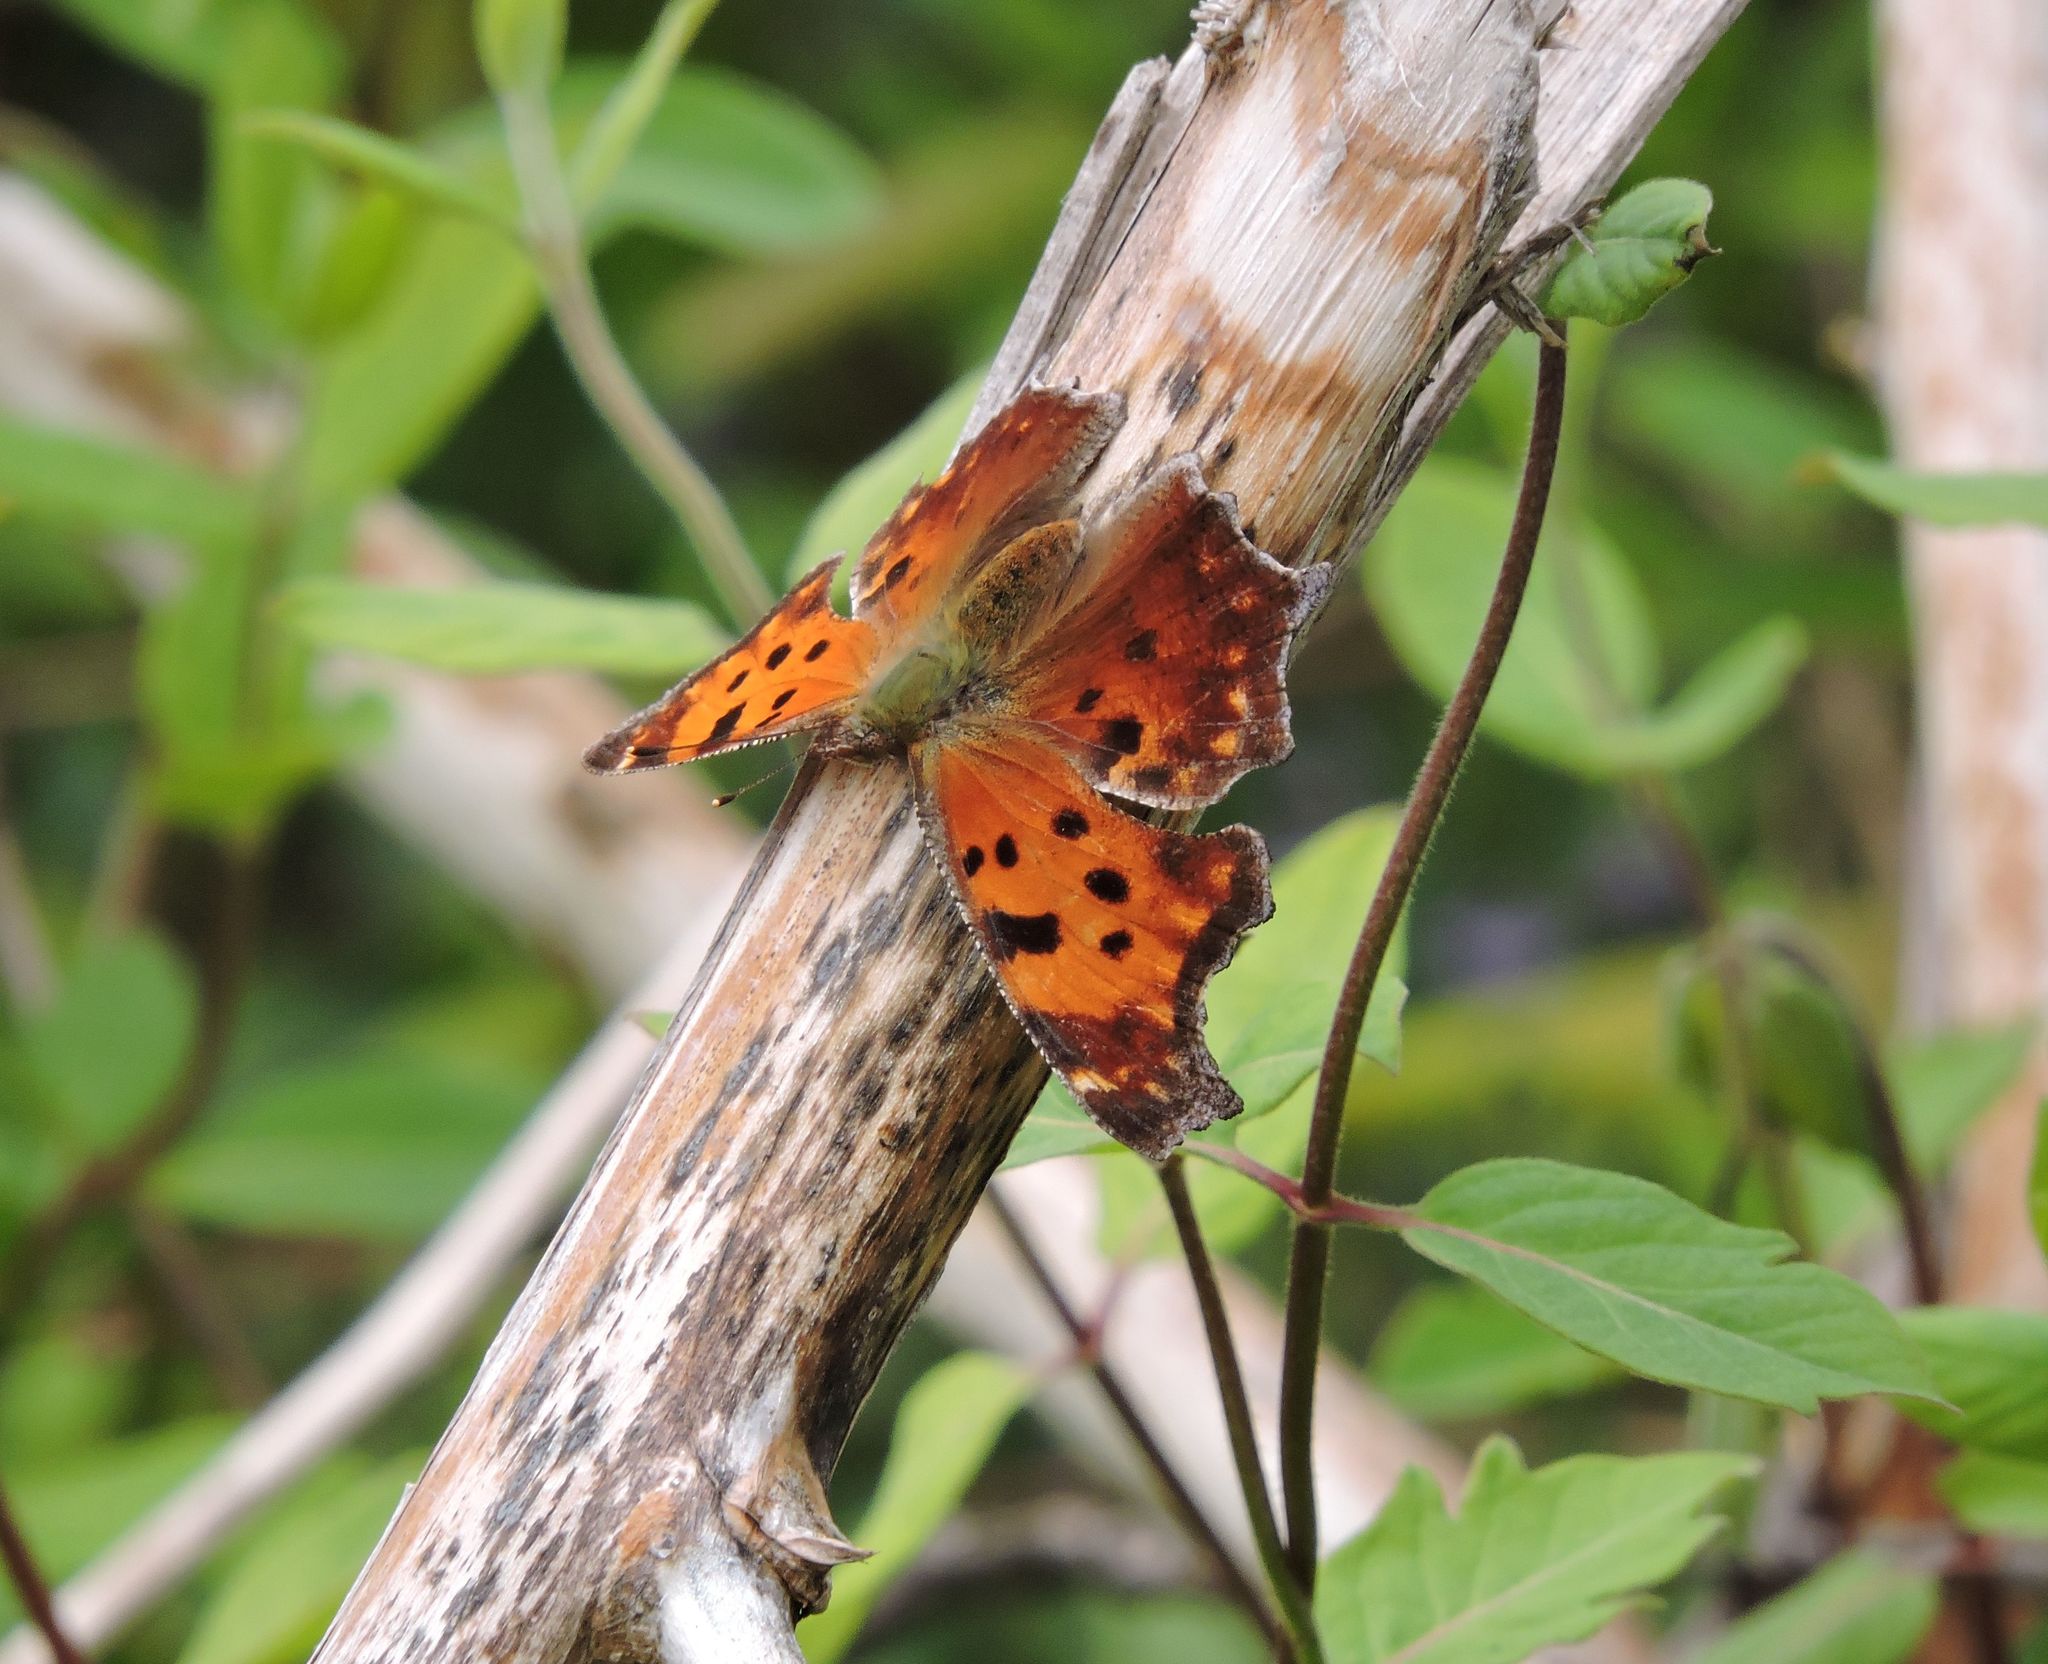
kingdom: Animalia
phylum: Arthropoda
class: Insecta
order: Lepidoptera
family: Nymphalidae
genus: Polygonia
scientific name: Polygonia comma
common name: Eastern comma
